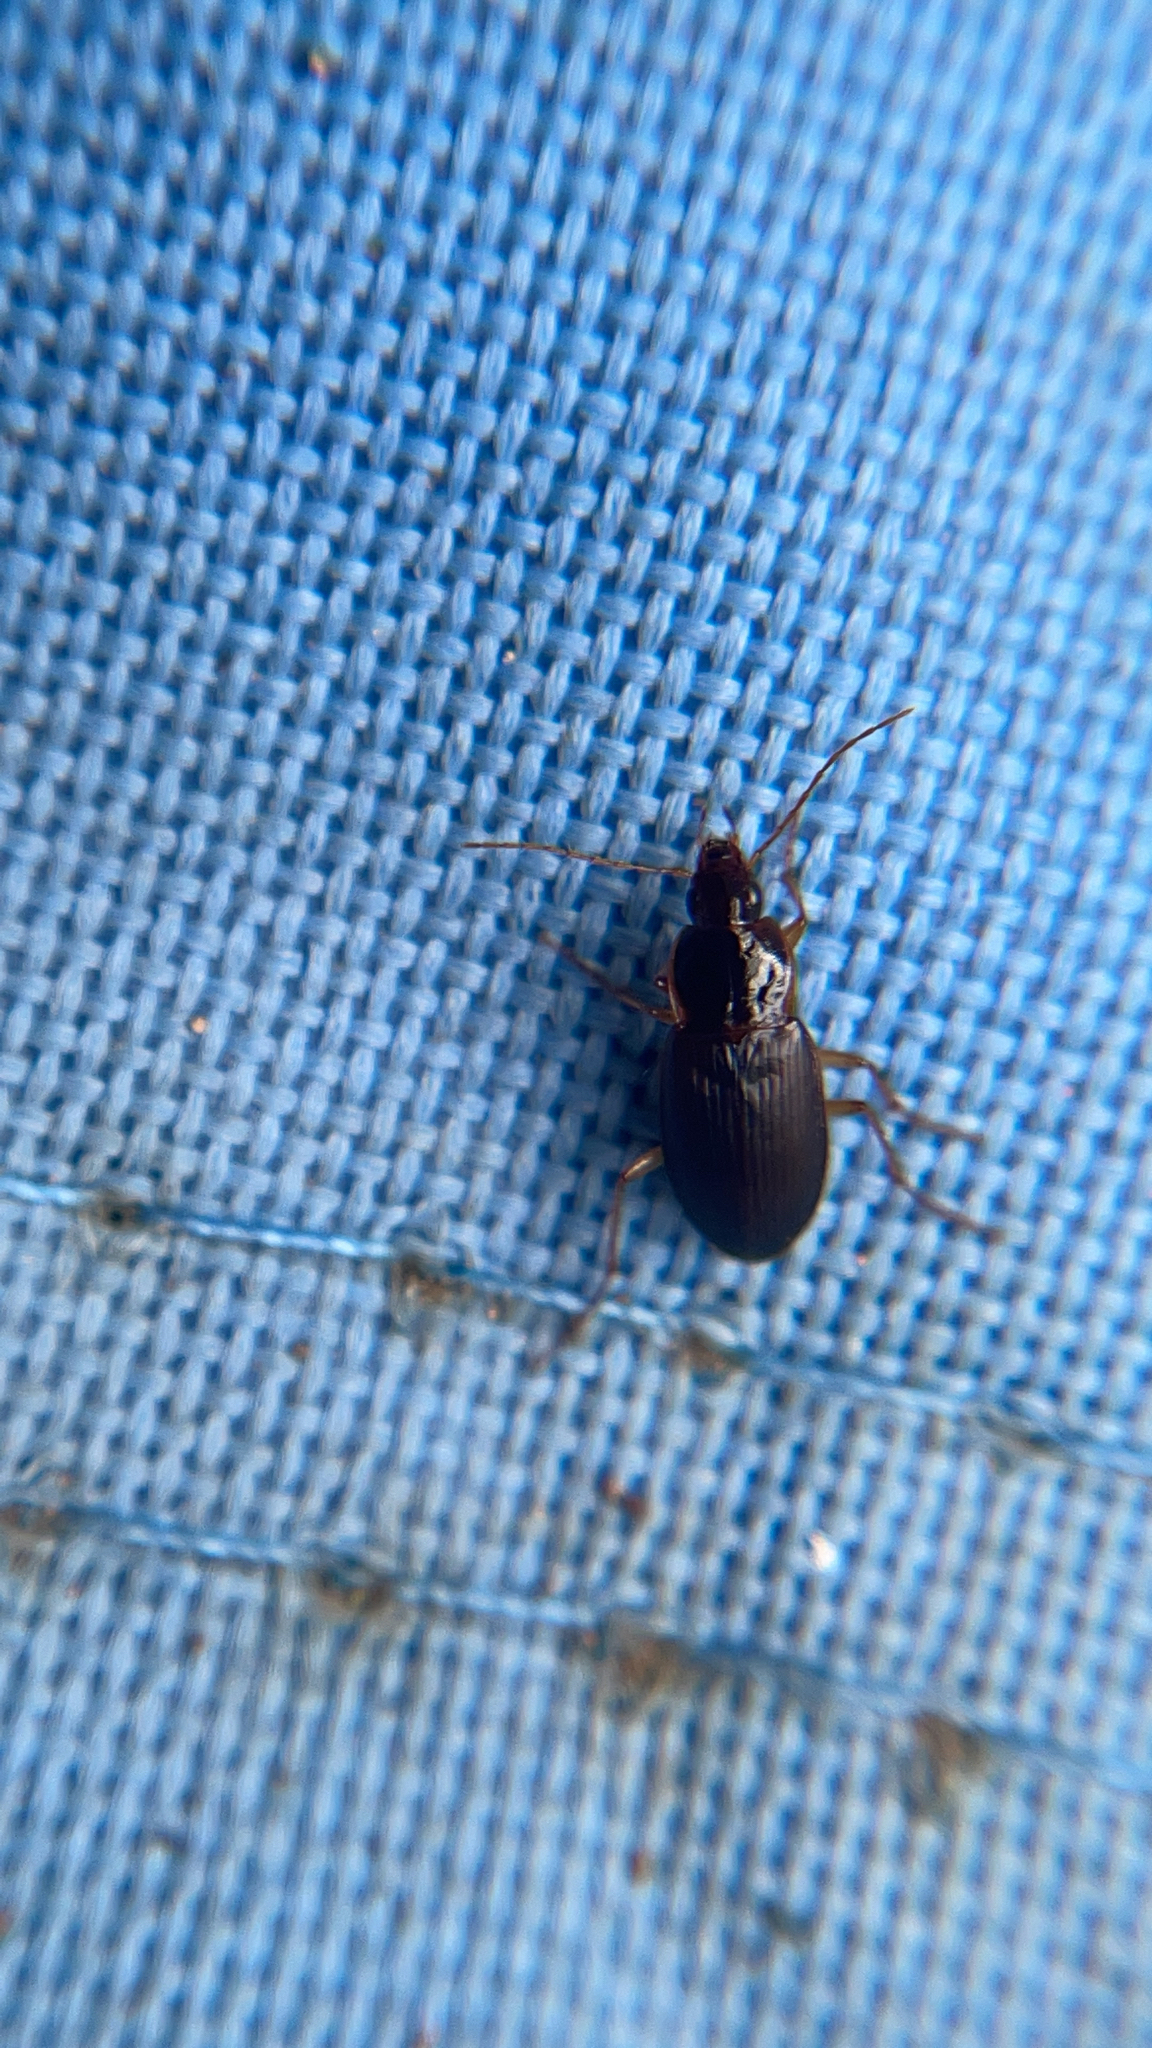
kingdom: Animalia
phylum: Arthropoda
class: Insecta
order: Coleoptera
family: Carabidae
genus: Calathus
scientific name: Calathus gregarius
